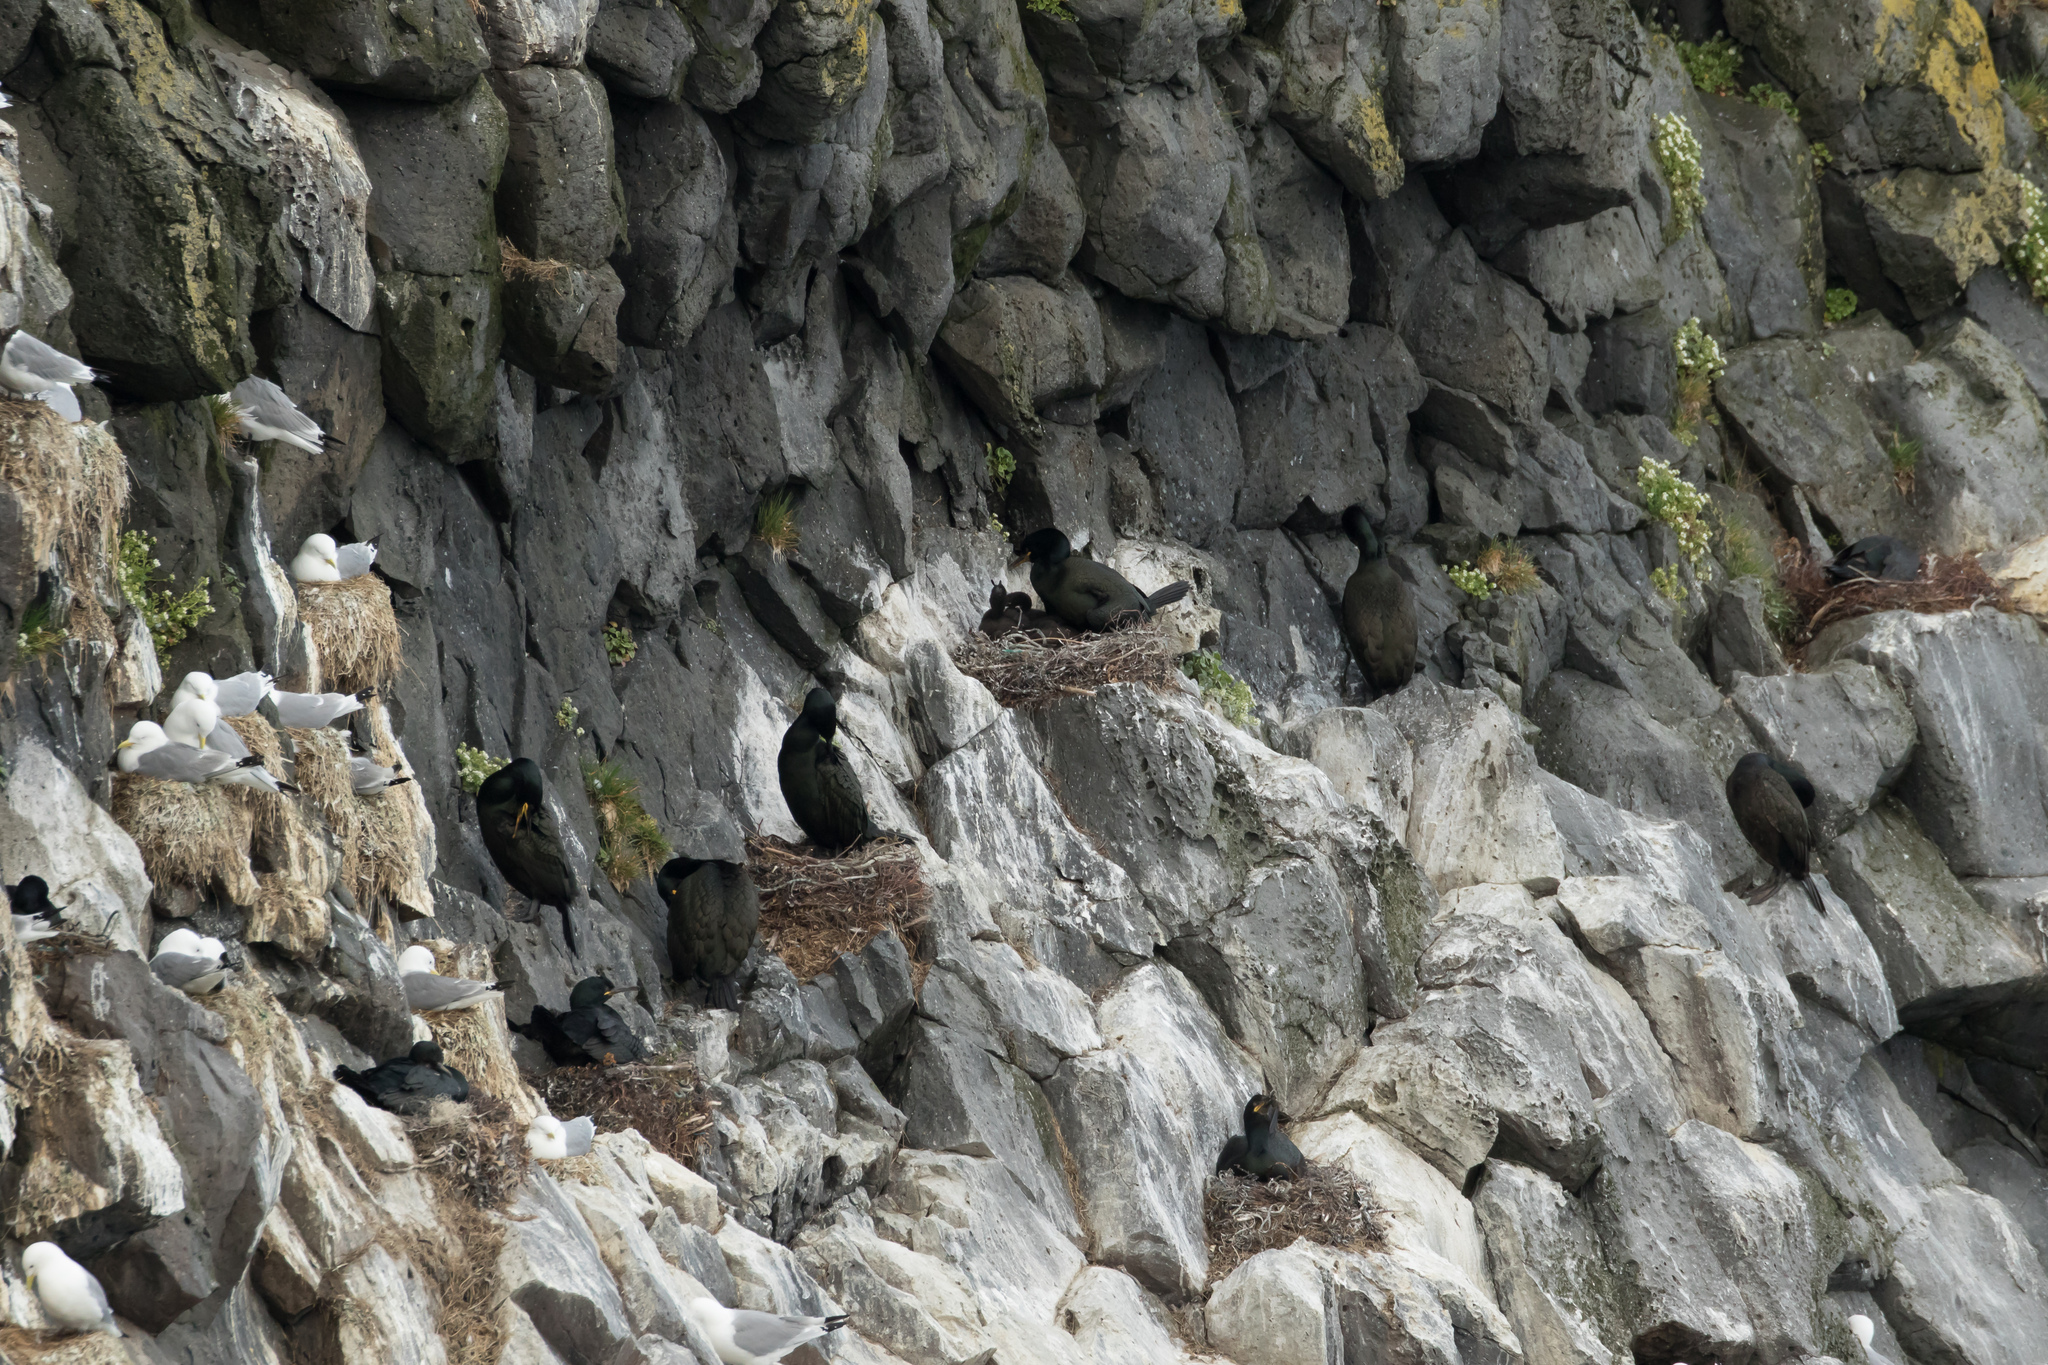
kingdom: Animalia
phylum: Chordata
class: Aves
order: Suliformes
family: Phalacrocoracidae
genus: Phalacrocorax
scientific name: Phalacrocorax aristotelis
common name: European shag
